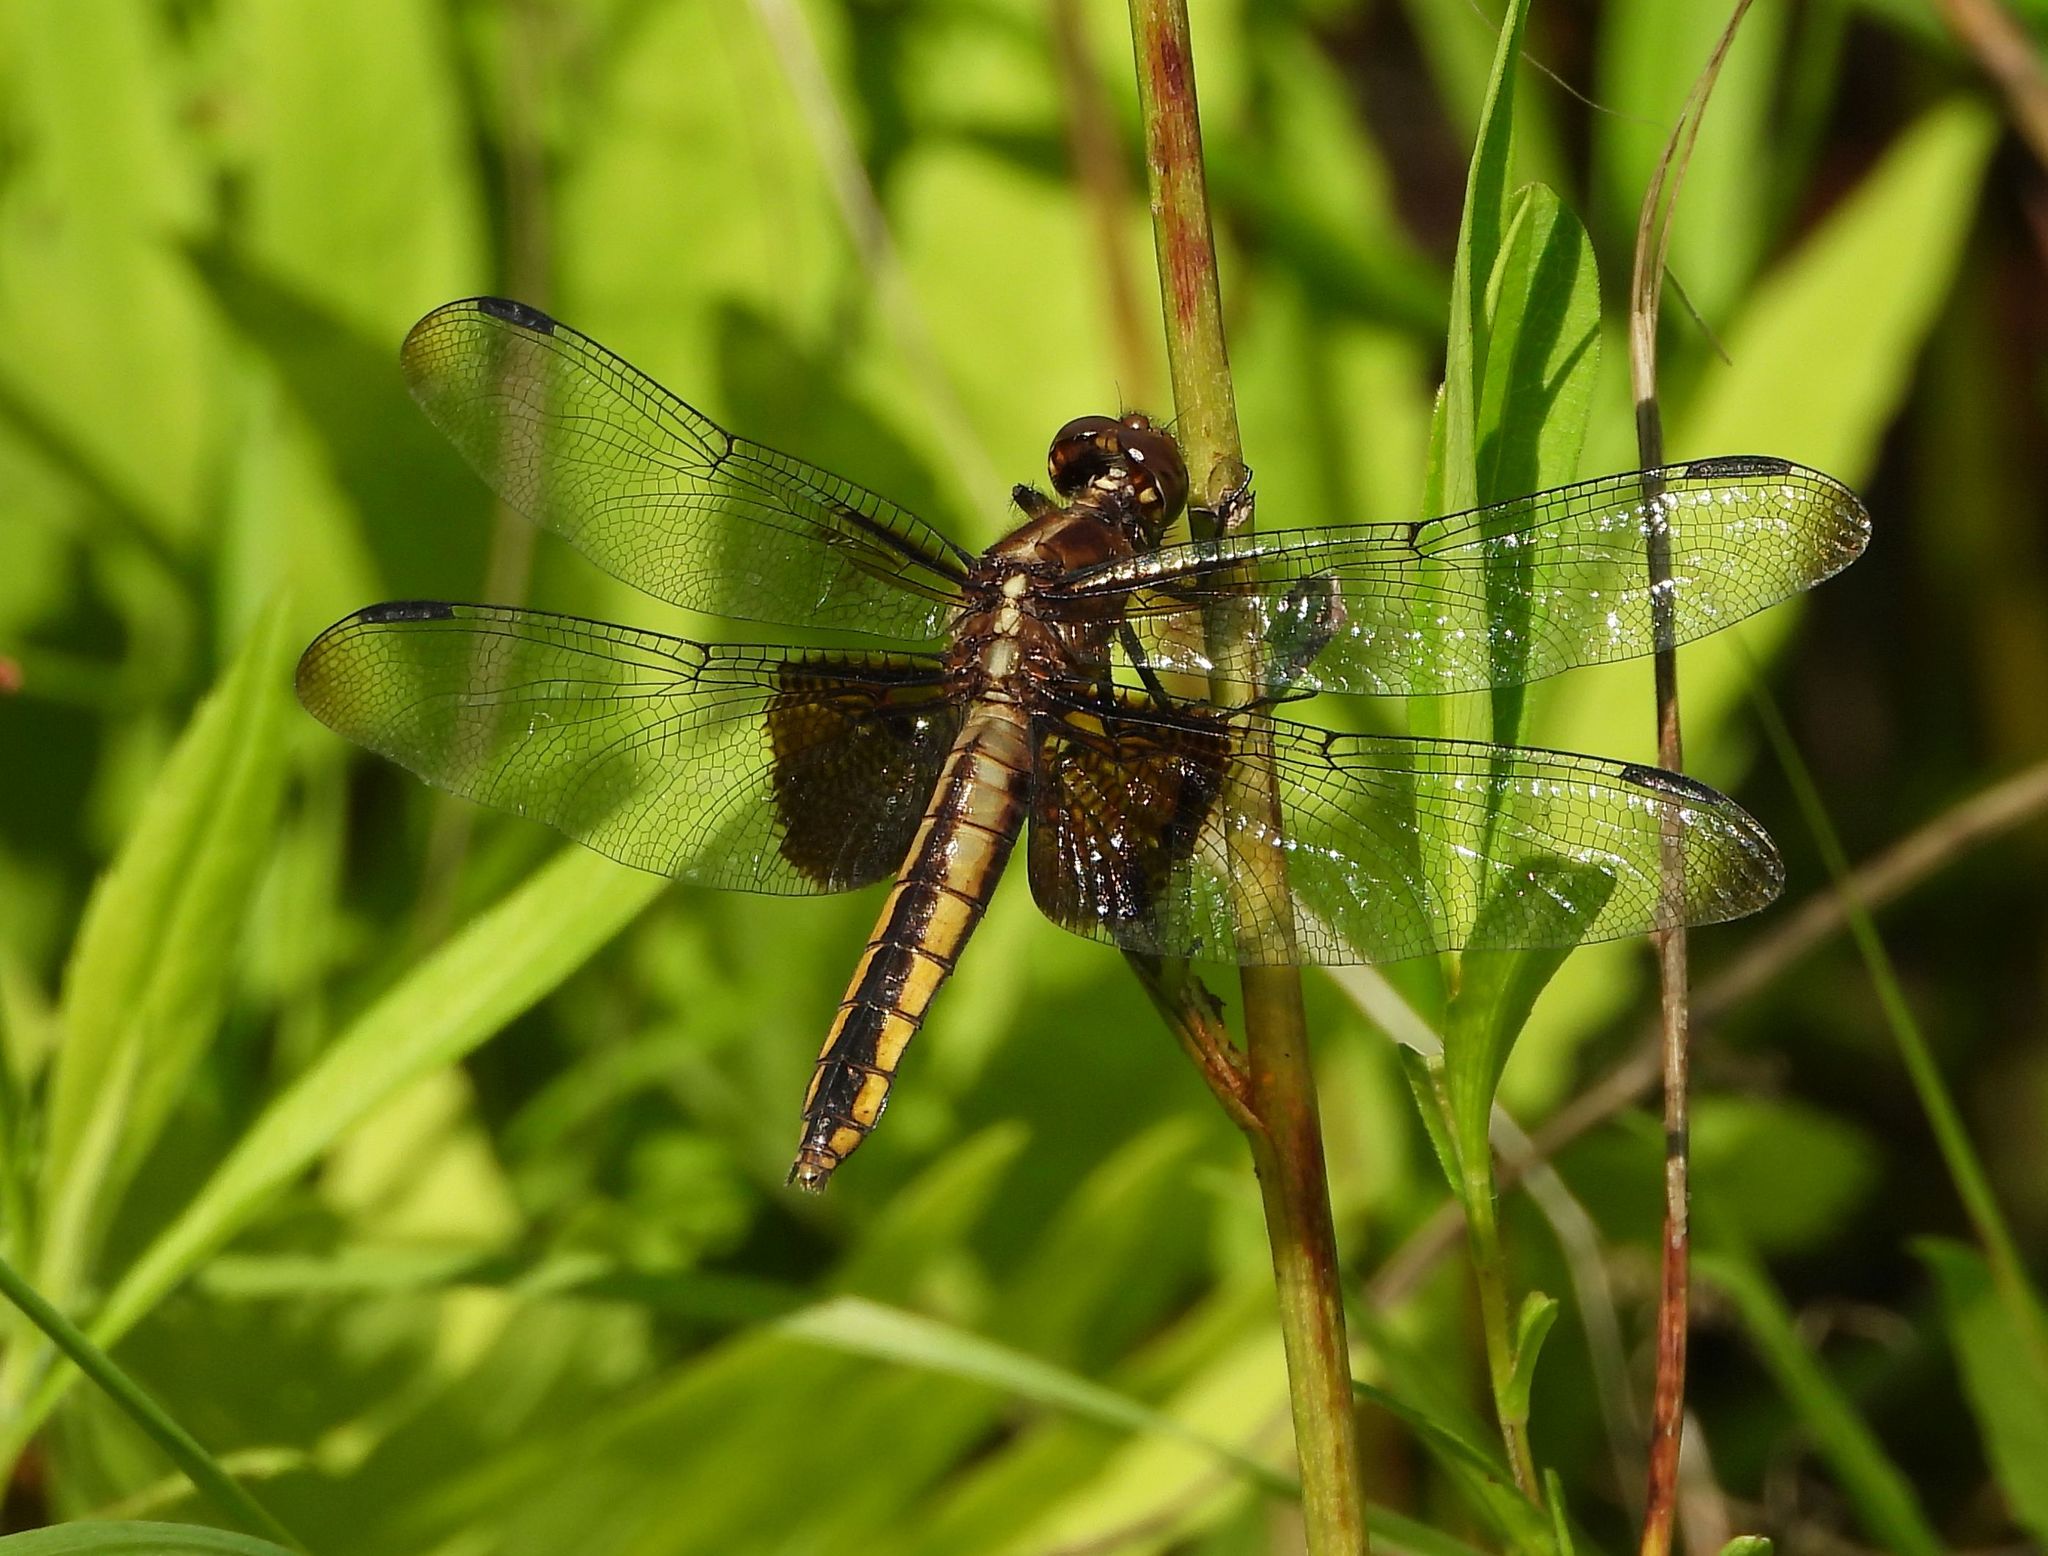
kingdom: Animalia
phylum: Arthropoda
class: Insecta
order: Odonata
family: Libellulidae
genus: Libellula
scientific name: Libellula luctuosa
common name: Widow skimmer
